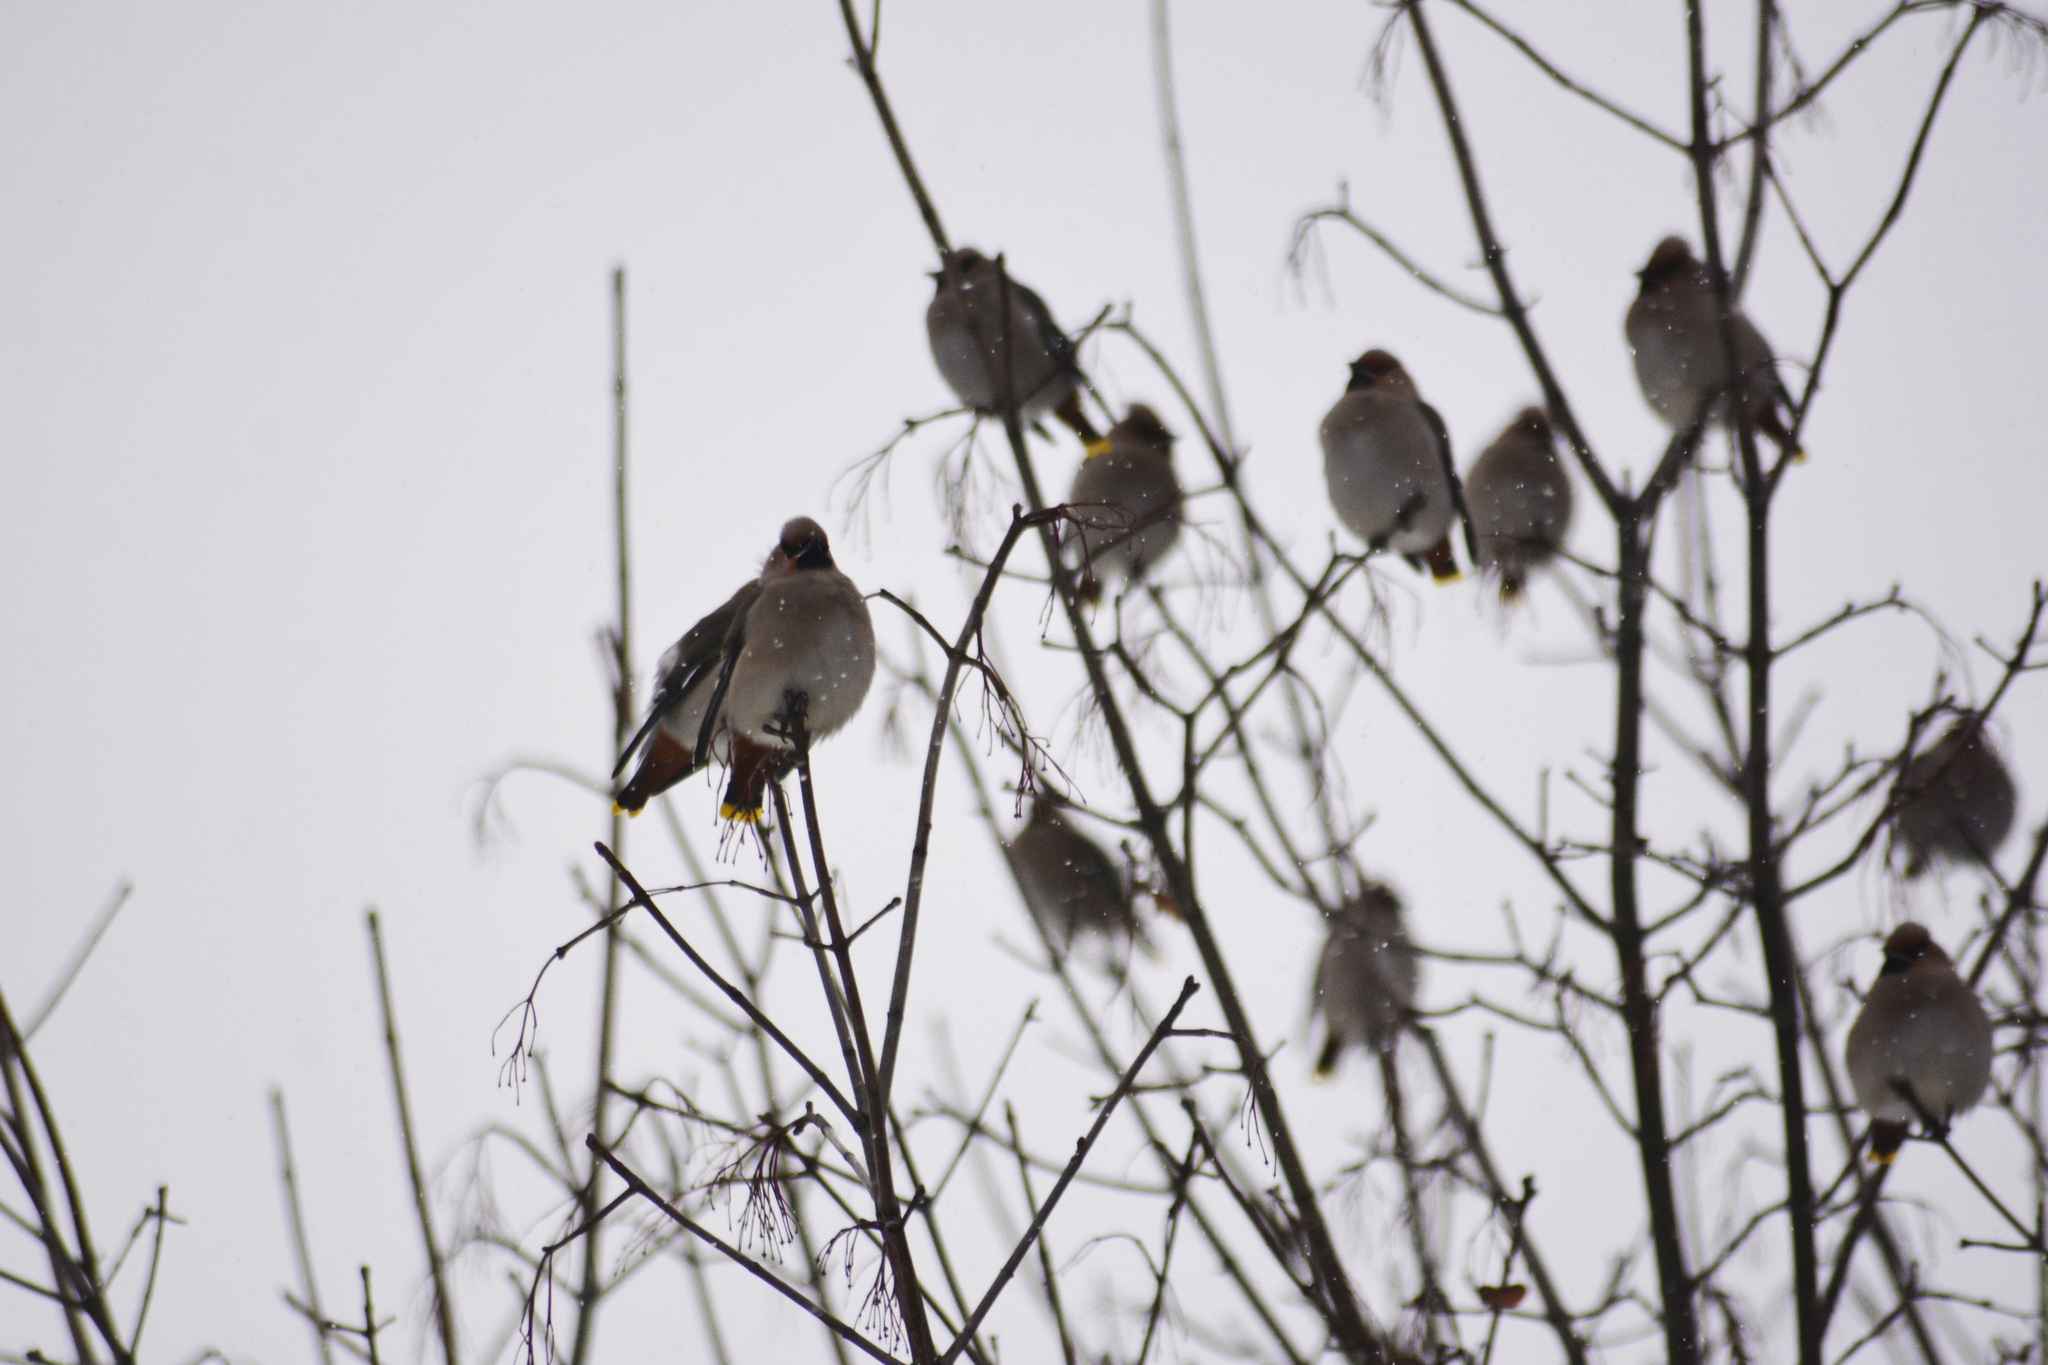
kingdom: Animalia
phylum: Chordata
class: Aves
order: Passeriformes
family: Bombycillidae
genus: Bombycilla
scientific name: Bombycilla garrulus
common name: Bohemian waxwing
